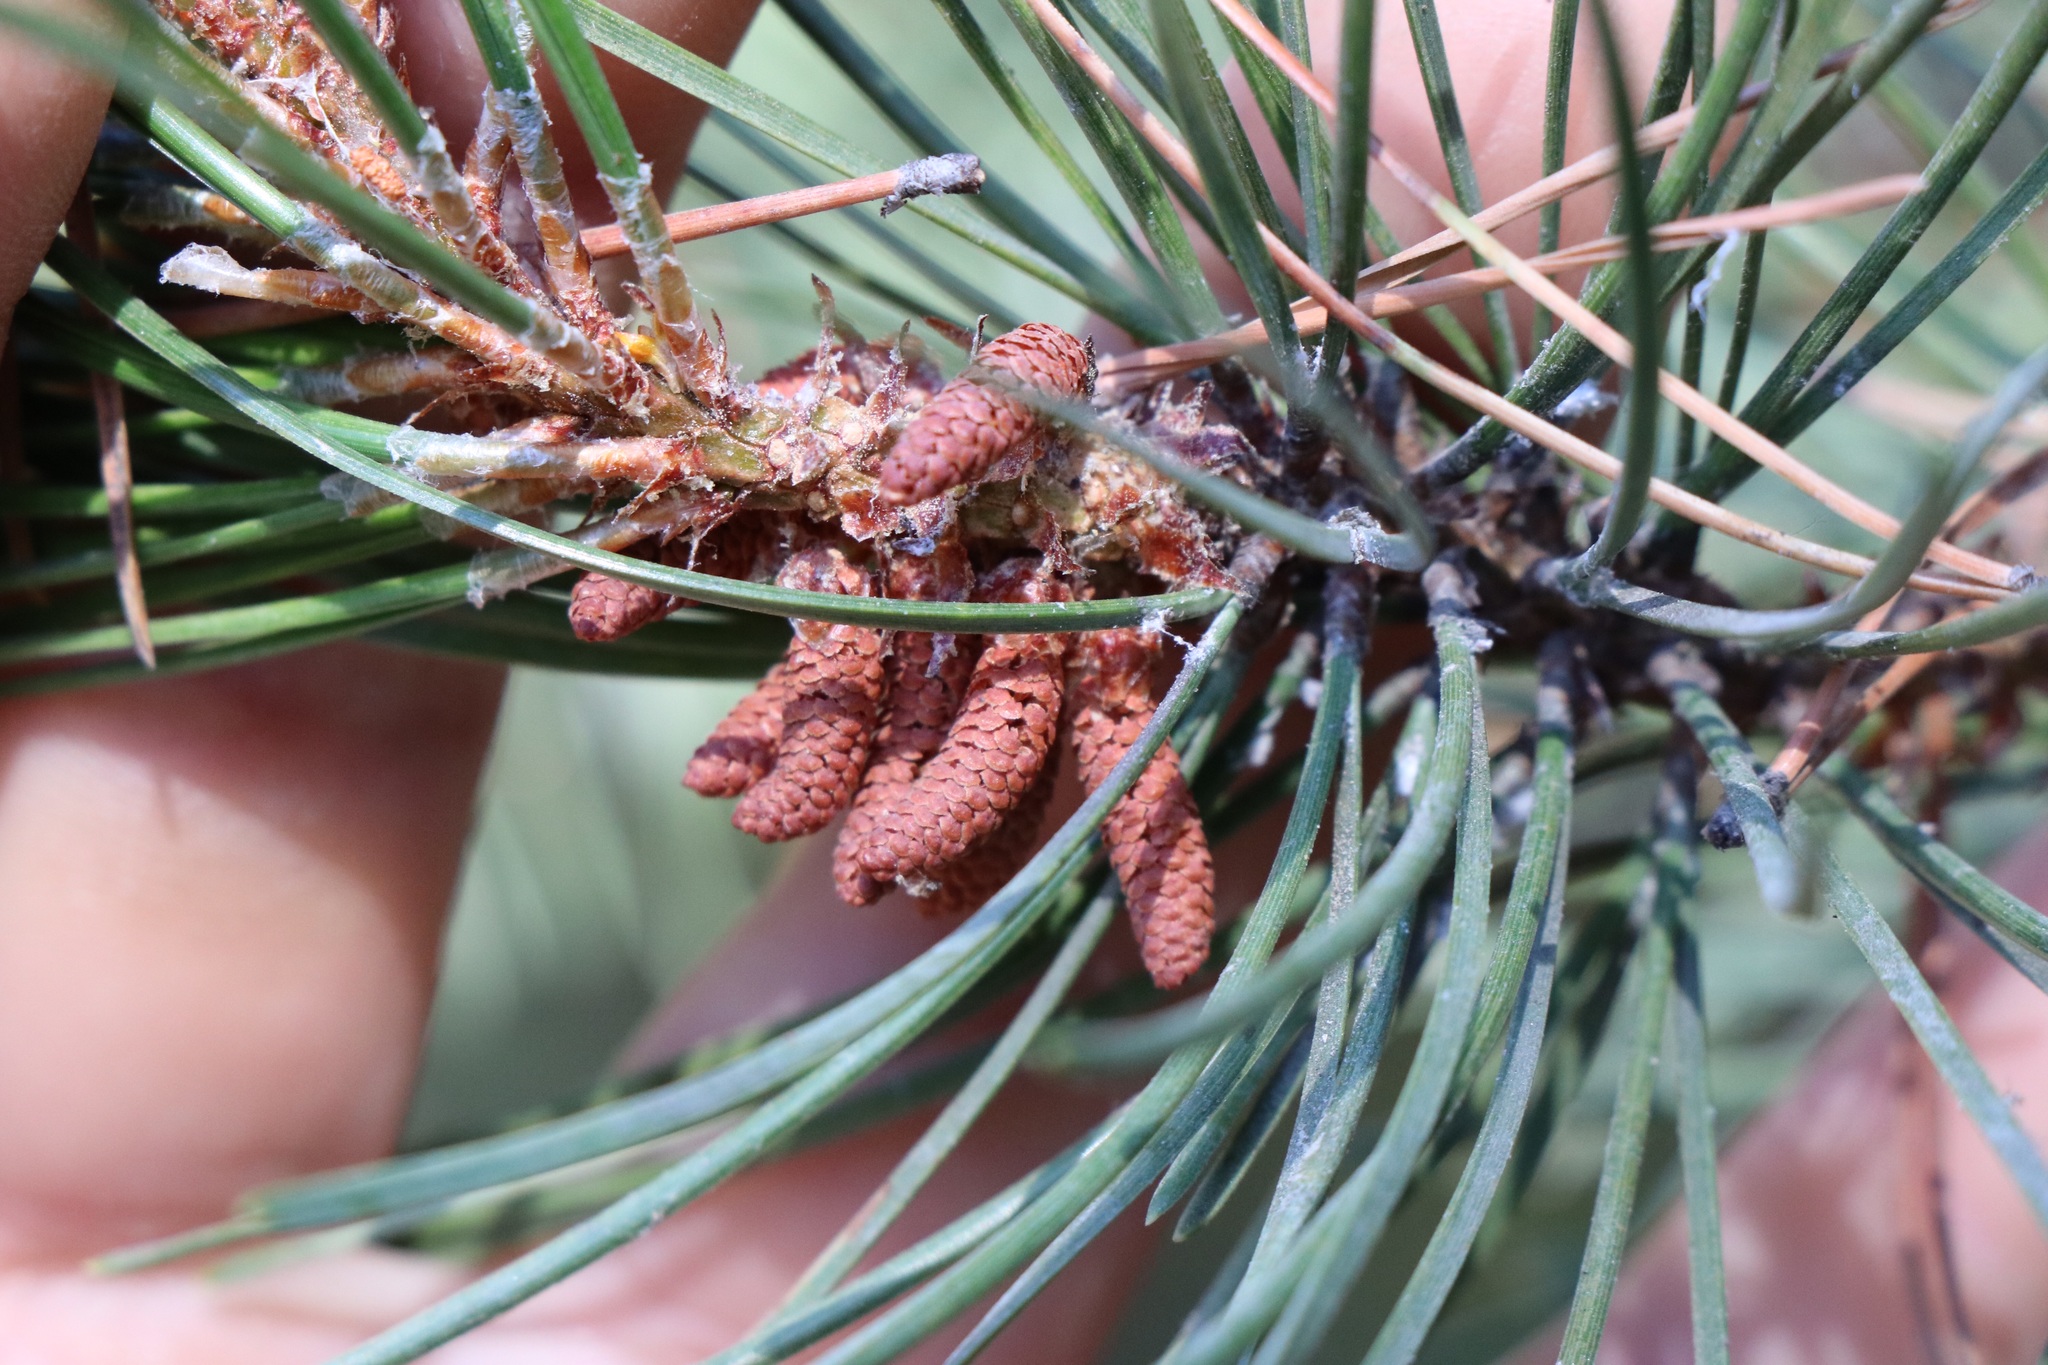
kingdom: Plantae
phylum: Tracheophyta
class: Pinopsida
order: Pinales
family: Pinaceae
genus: Pinus
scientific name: Pinus contorta
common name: Lodgepole pine
